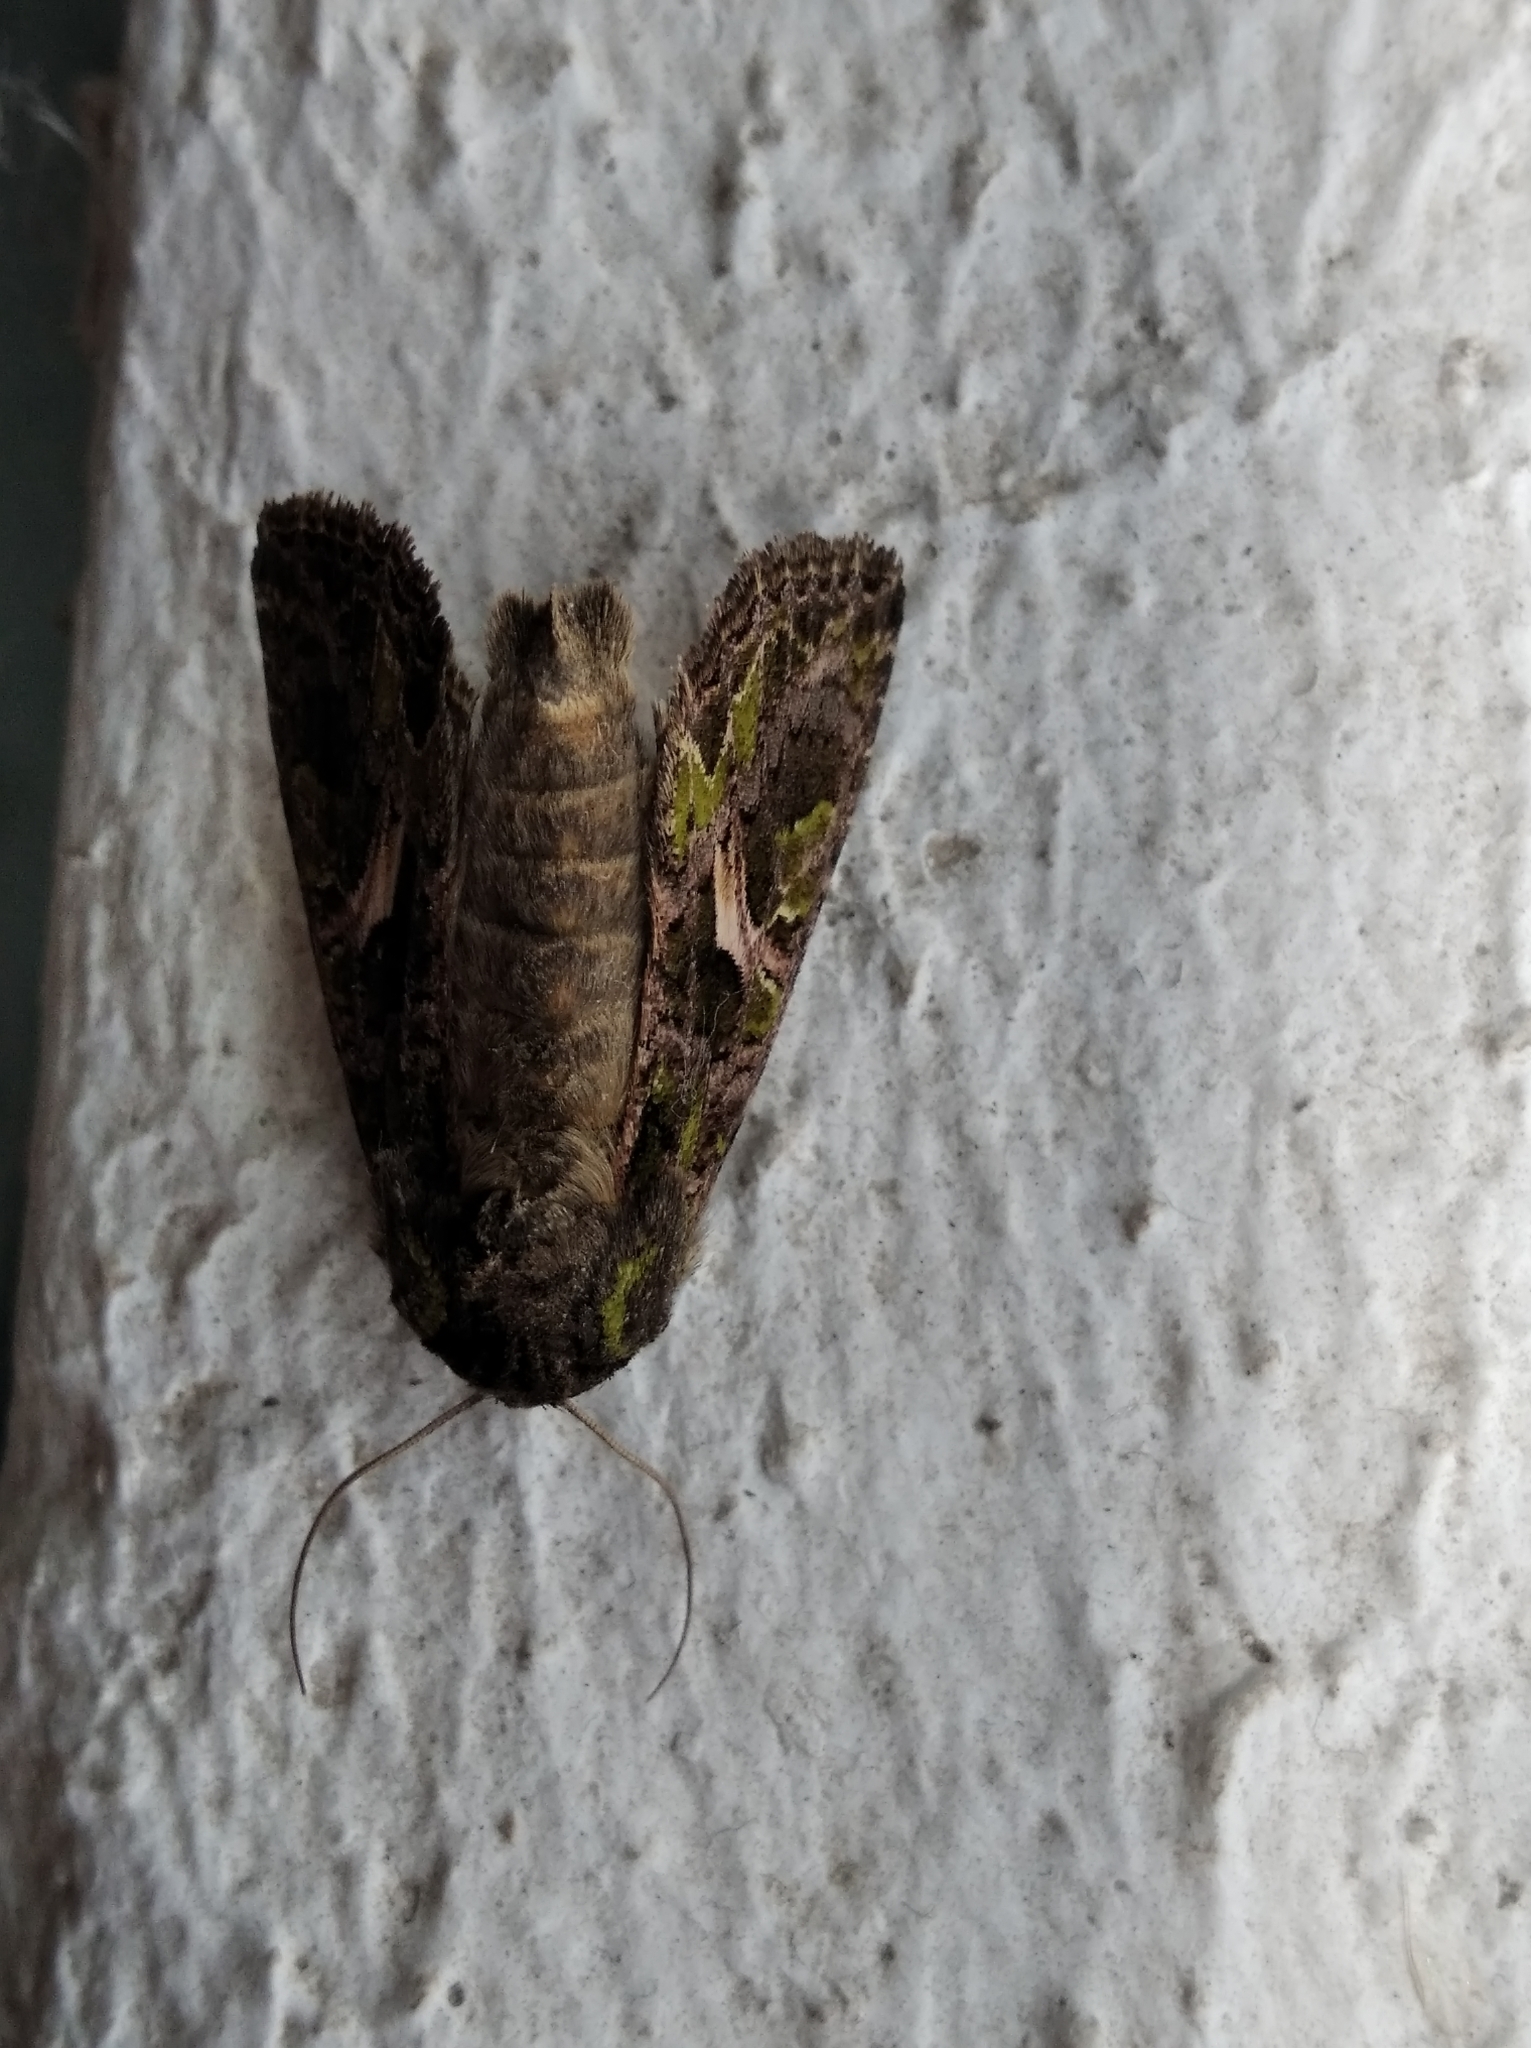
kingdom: Animalia
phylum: Arthropoda
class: Insecta
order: Lepidoptera
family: Noctuidae
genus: Trachea
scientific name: Trachea atriplicis
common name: Orache moth
